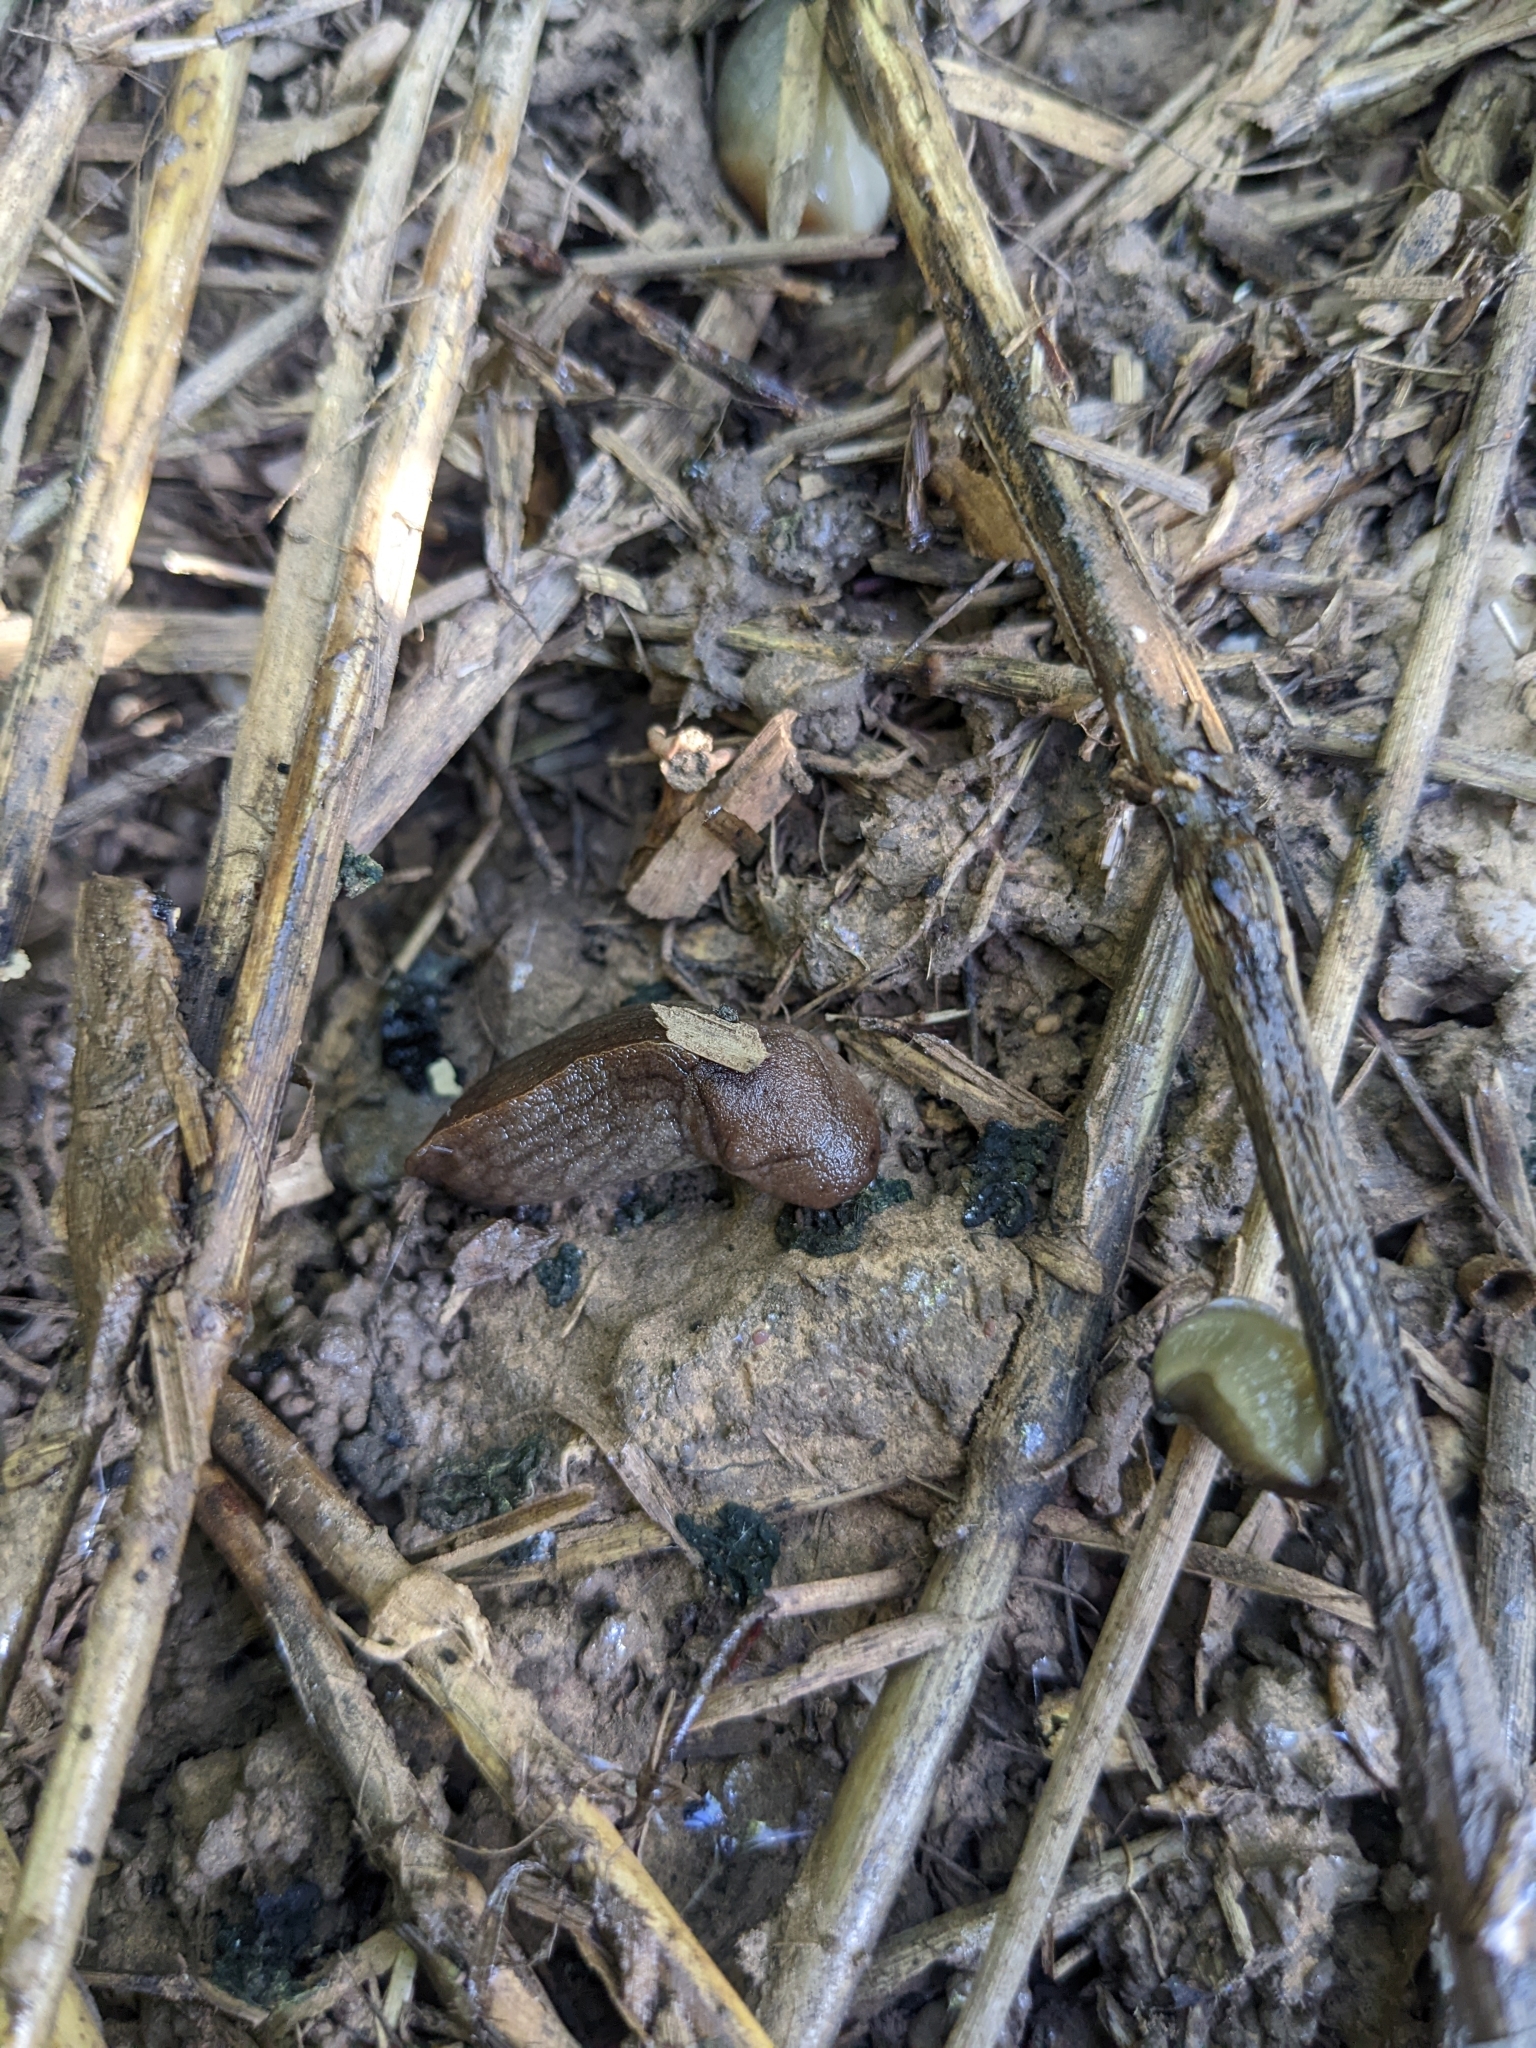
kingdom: Animalia
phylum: Mollusca
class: Gastropoda
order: Stylommatophora
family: Milacidae
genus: Milax
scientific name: Milax gagates
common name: Greenhouse slug
